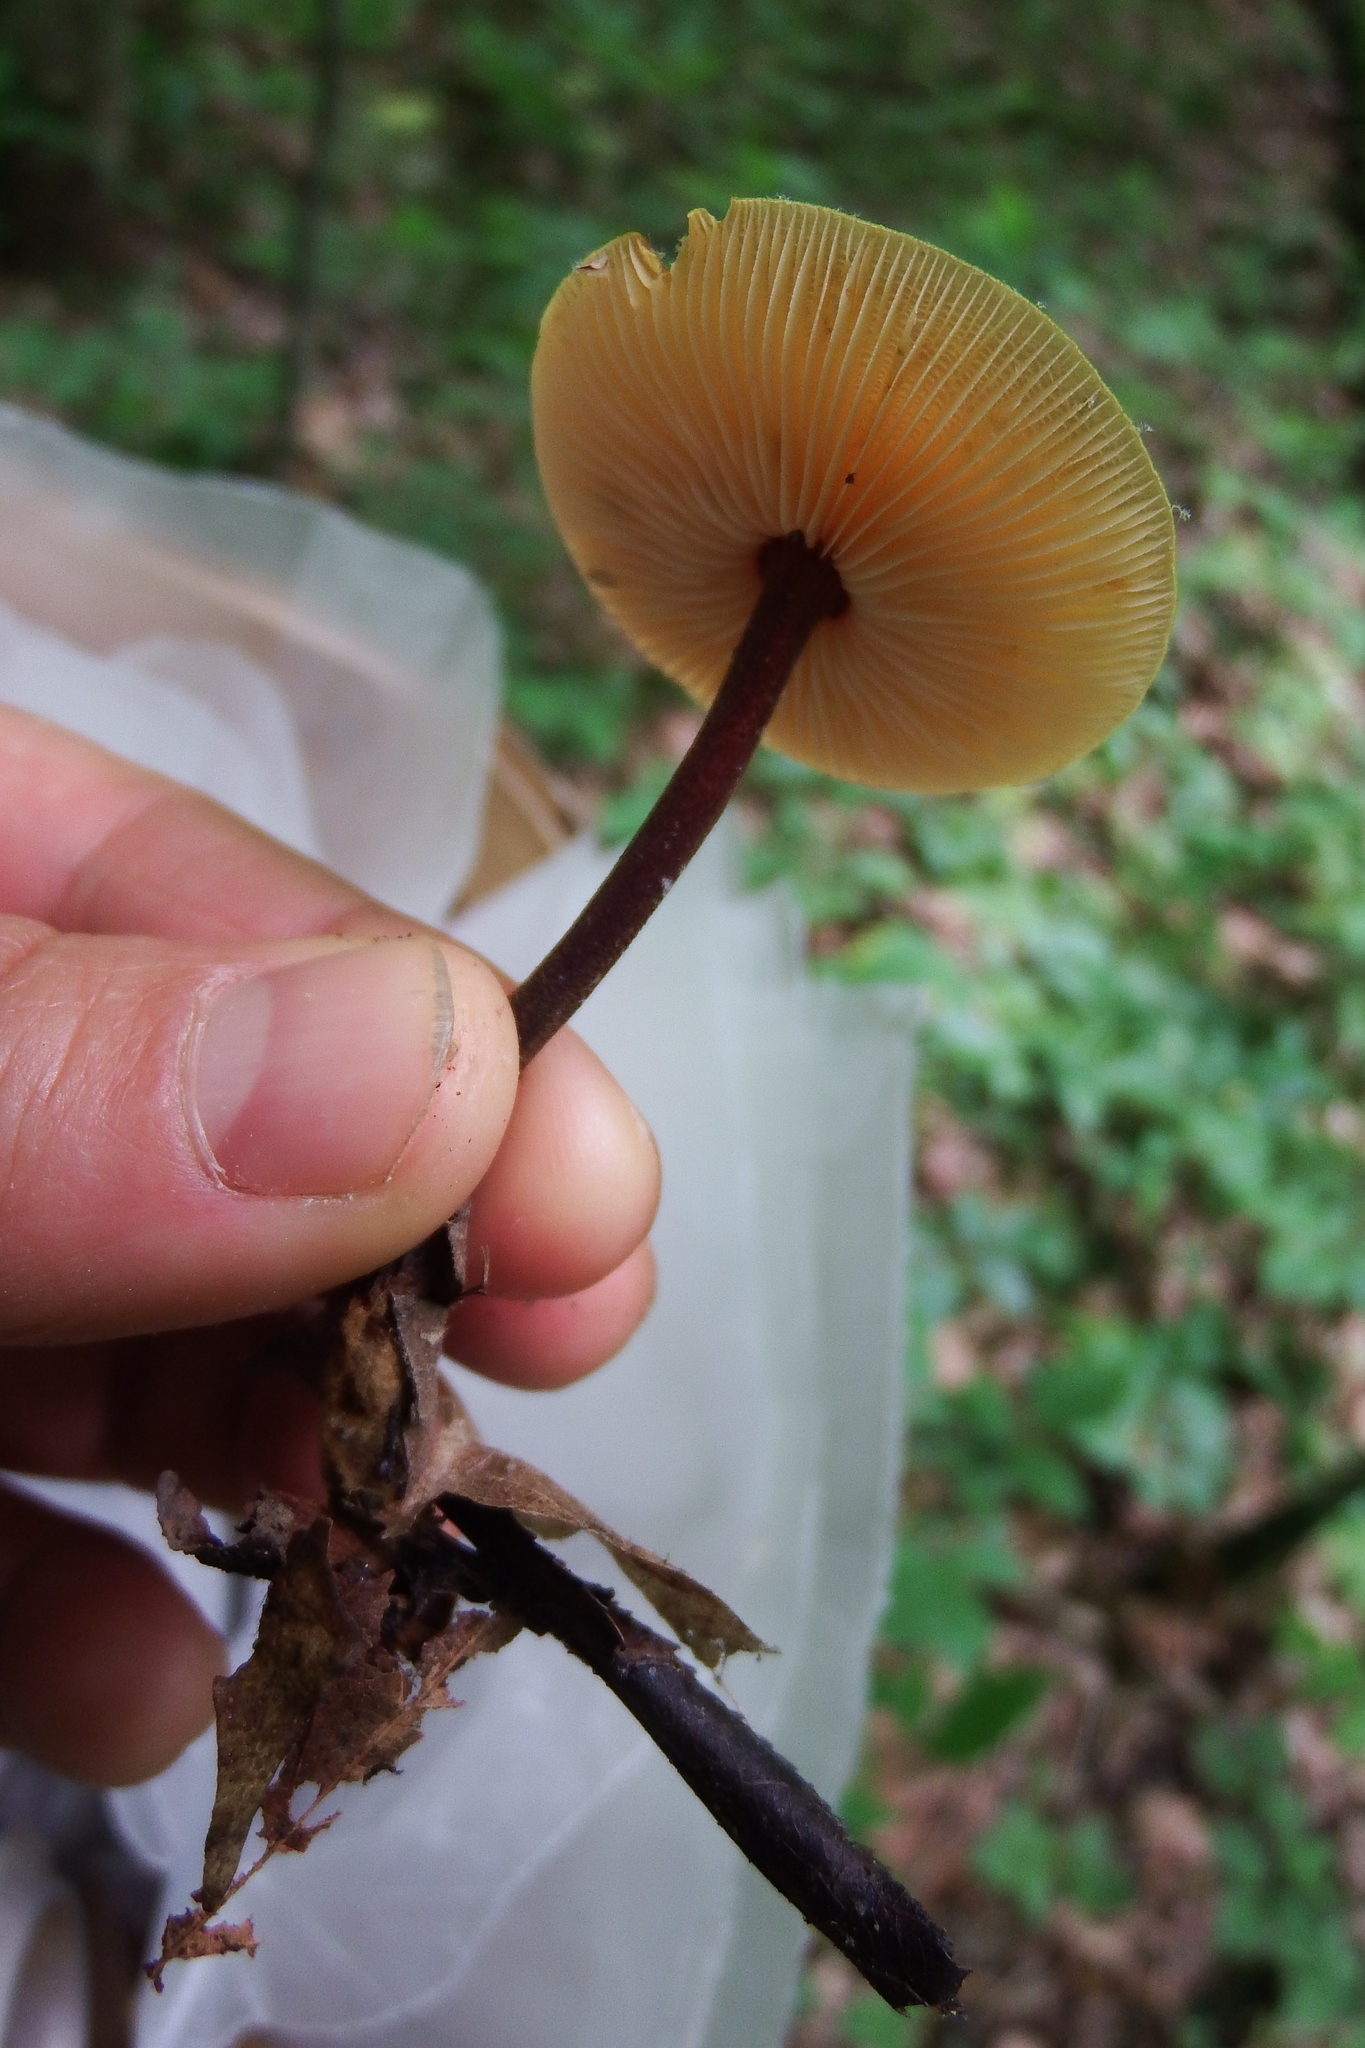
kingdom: Fungi
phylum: Basidiomycota
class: Agaricomycetes
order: Agaricales
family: Mycenaceae
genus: Xeromphalina
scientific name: Xeromphalina tenuipes
